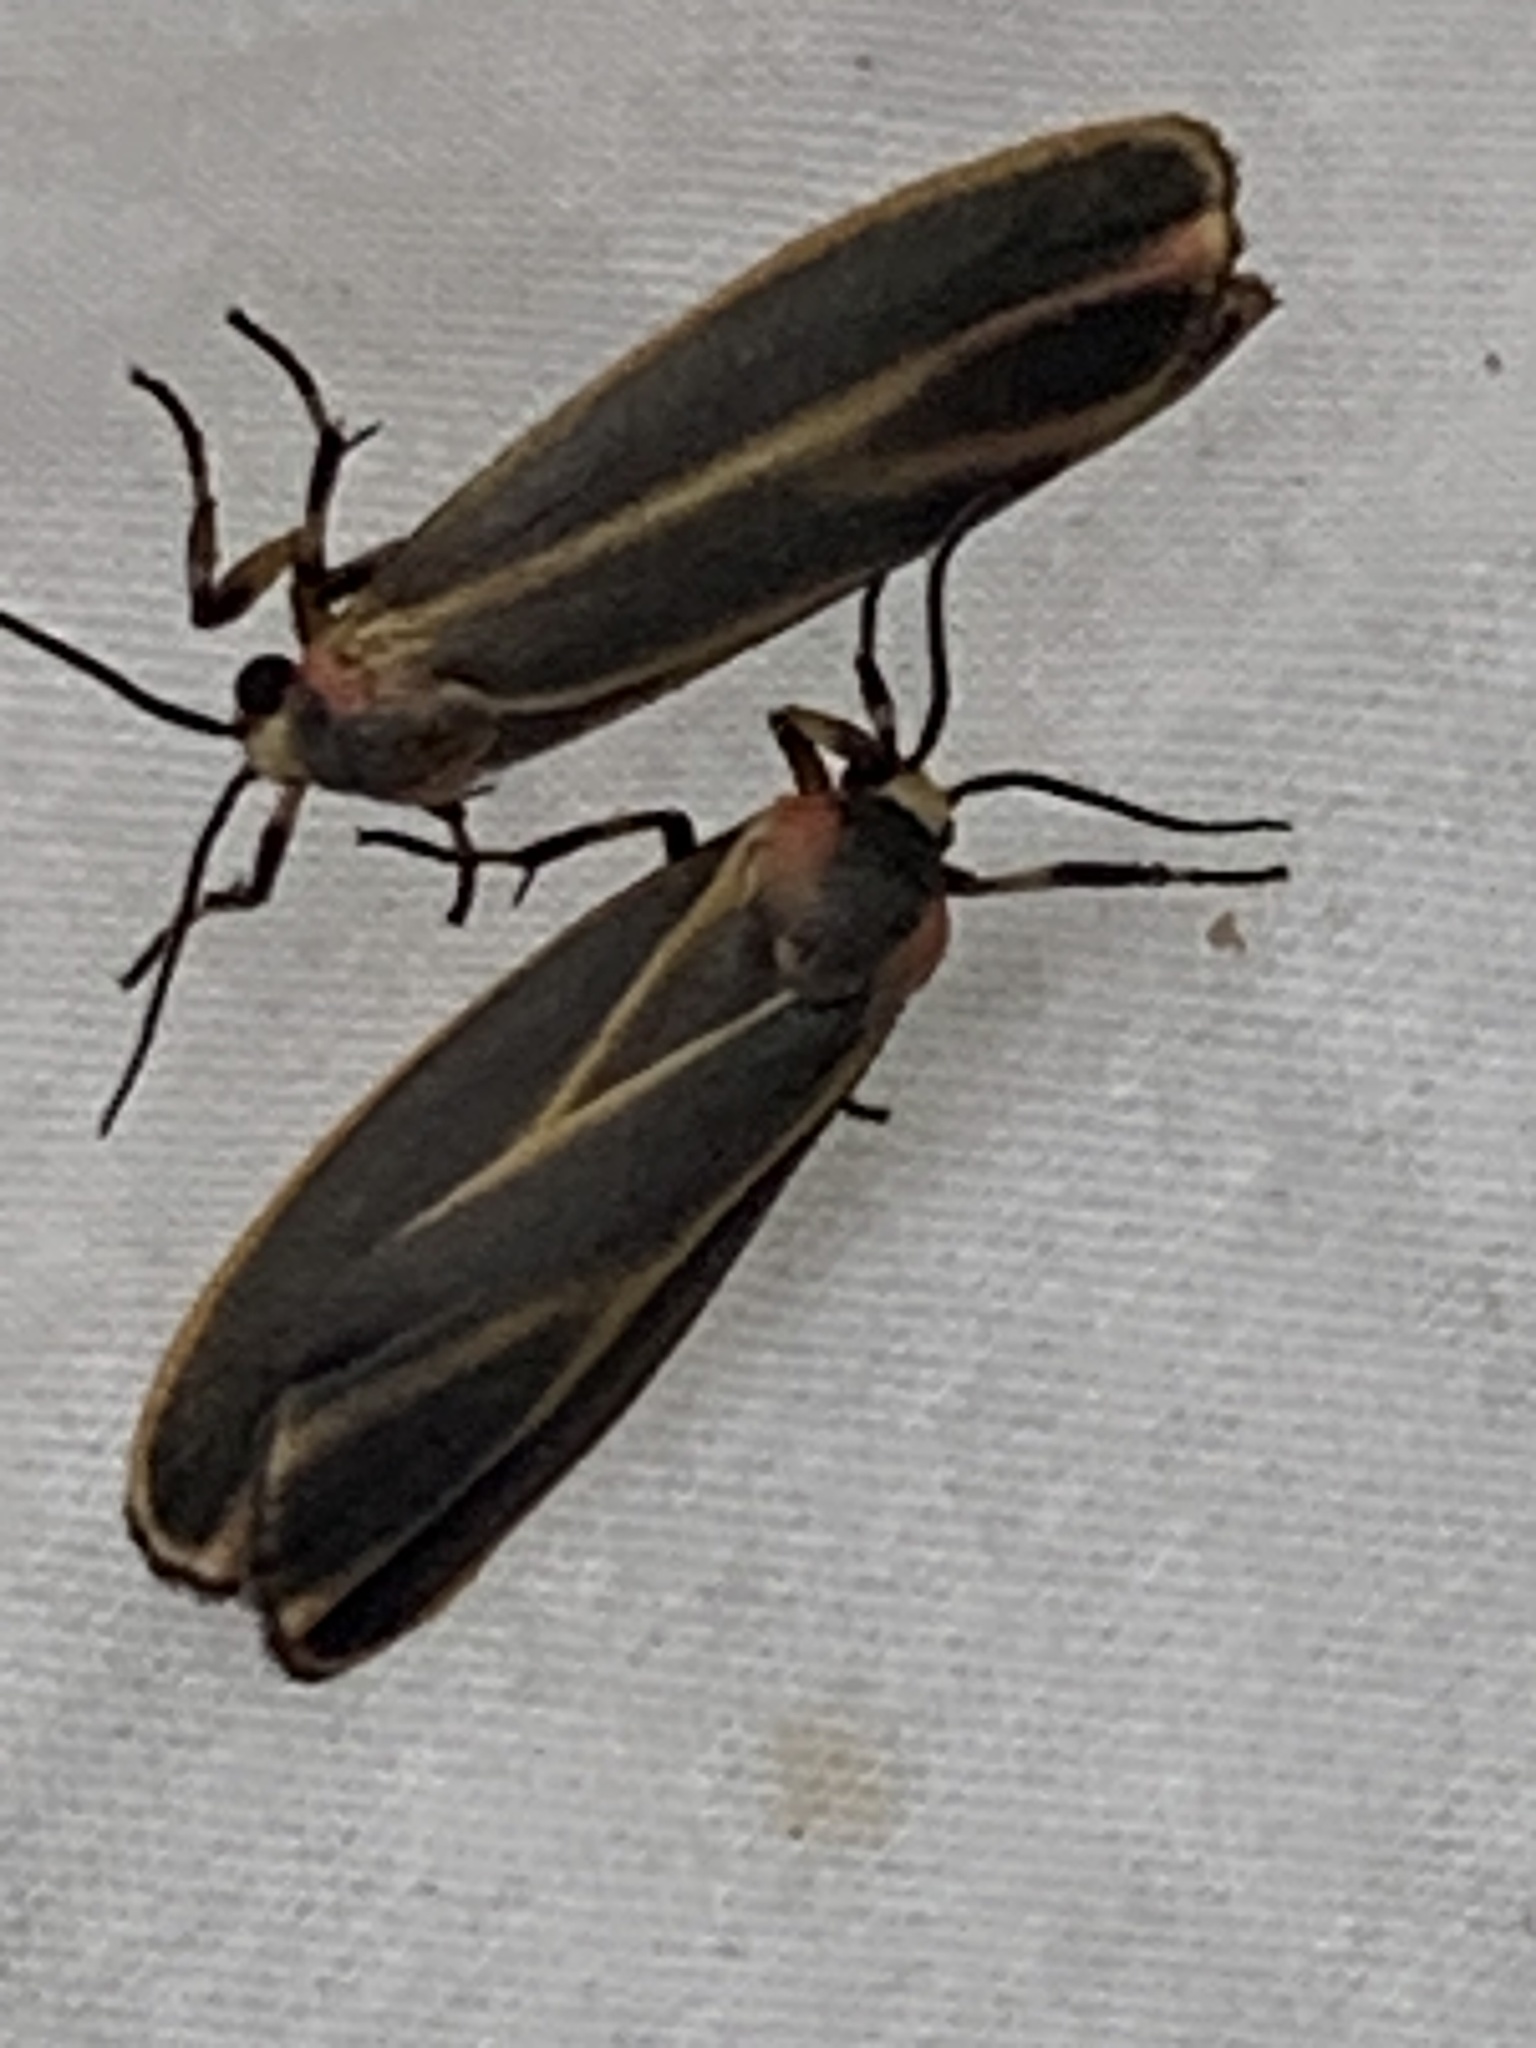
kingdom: Animalia
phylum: Arthropoda
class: Insecta
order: Lepidoptera
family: Erebidae
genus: Hypoprepia
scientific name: Hypoprepia fucosa
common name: Painted lichen moth
